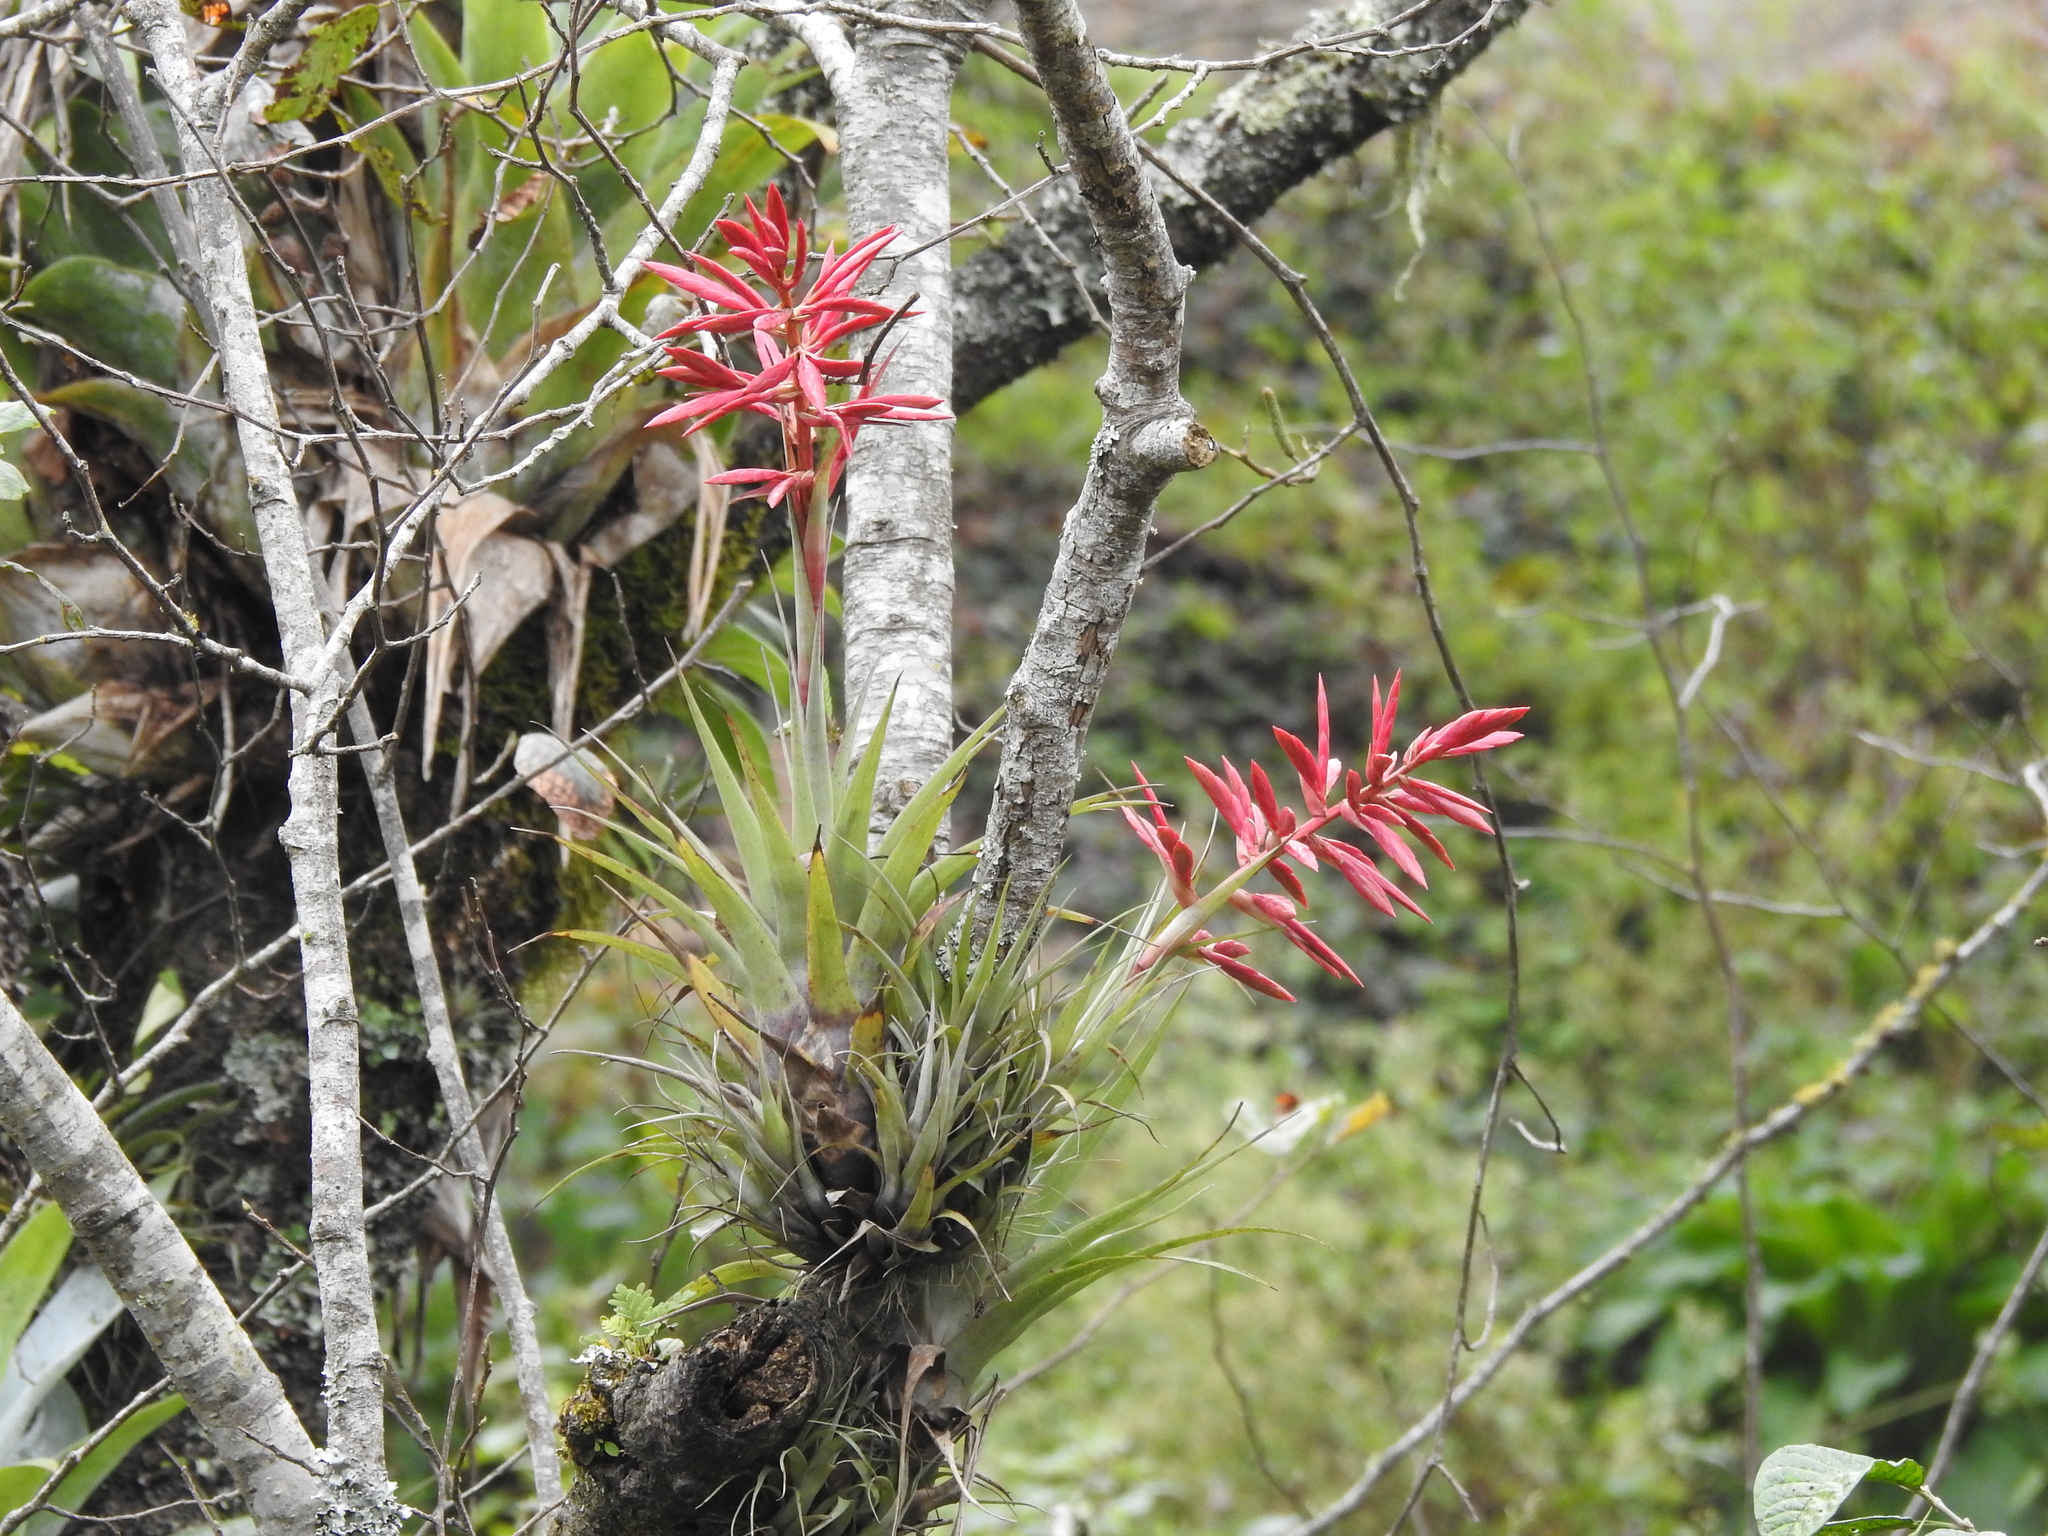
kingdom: Plantae
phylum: Tracheophyta
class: Liliopsida
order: Poales
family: Bromeliaceae
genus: Tillandsia
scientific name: Tillandsia gymnobotrya
